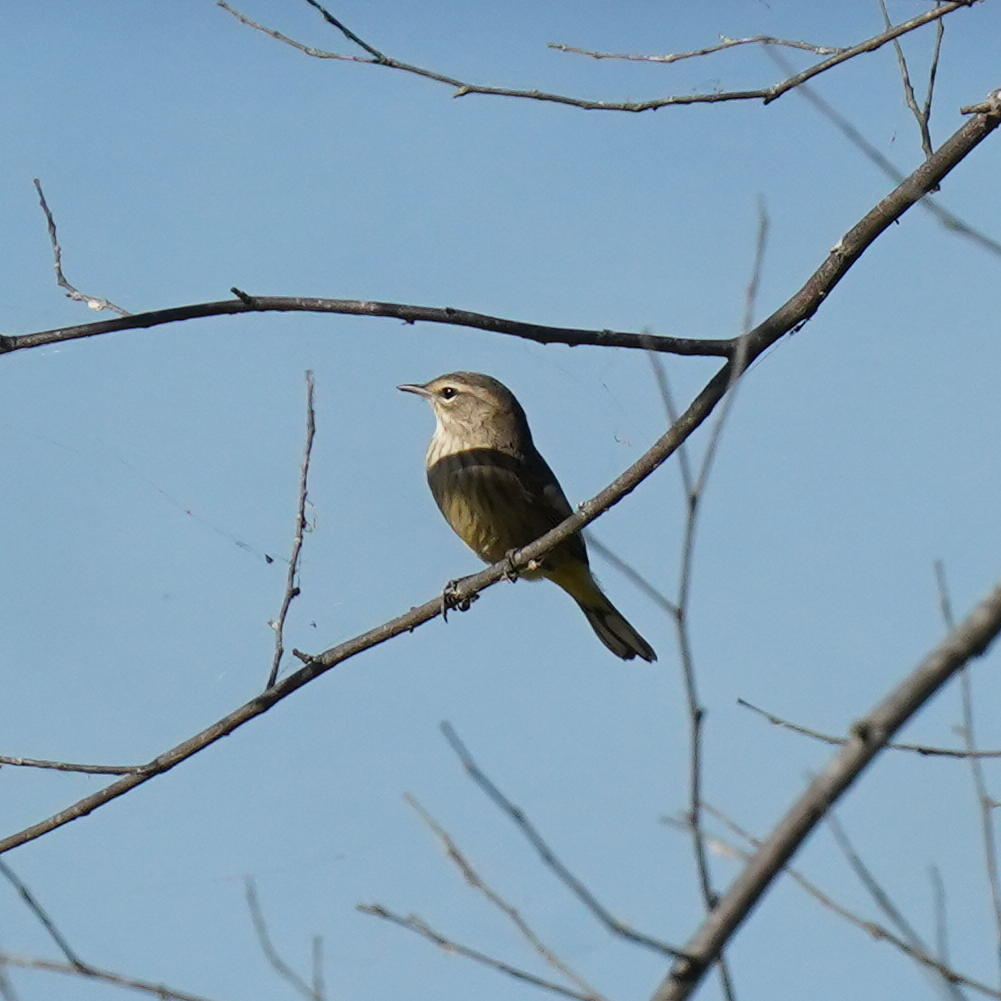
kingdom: Animalia
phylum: Chordata
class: Aves
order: Passeriformes
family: Parulidae
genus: Setophaga
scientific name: Setophaga palmarum
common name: Palm warbler
